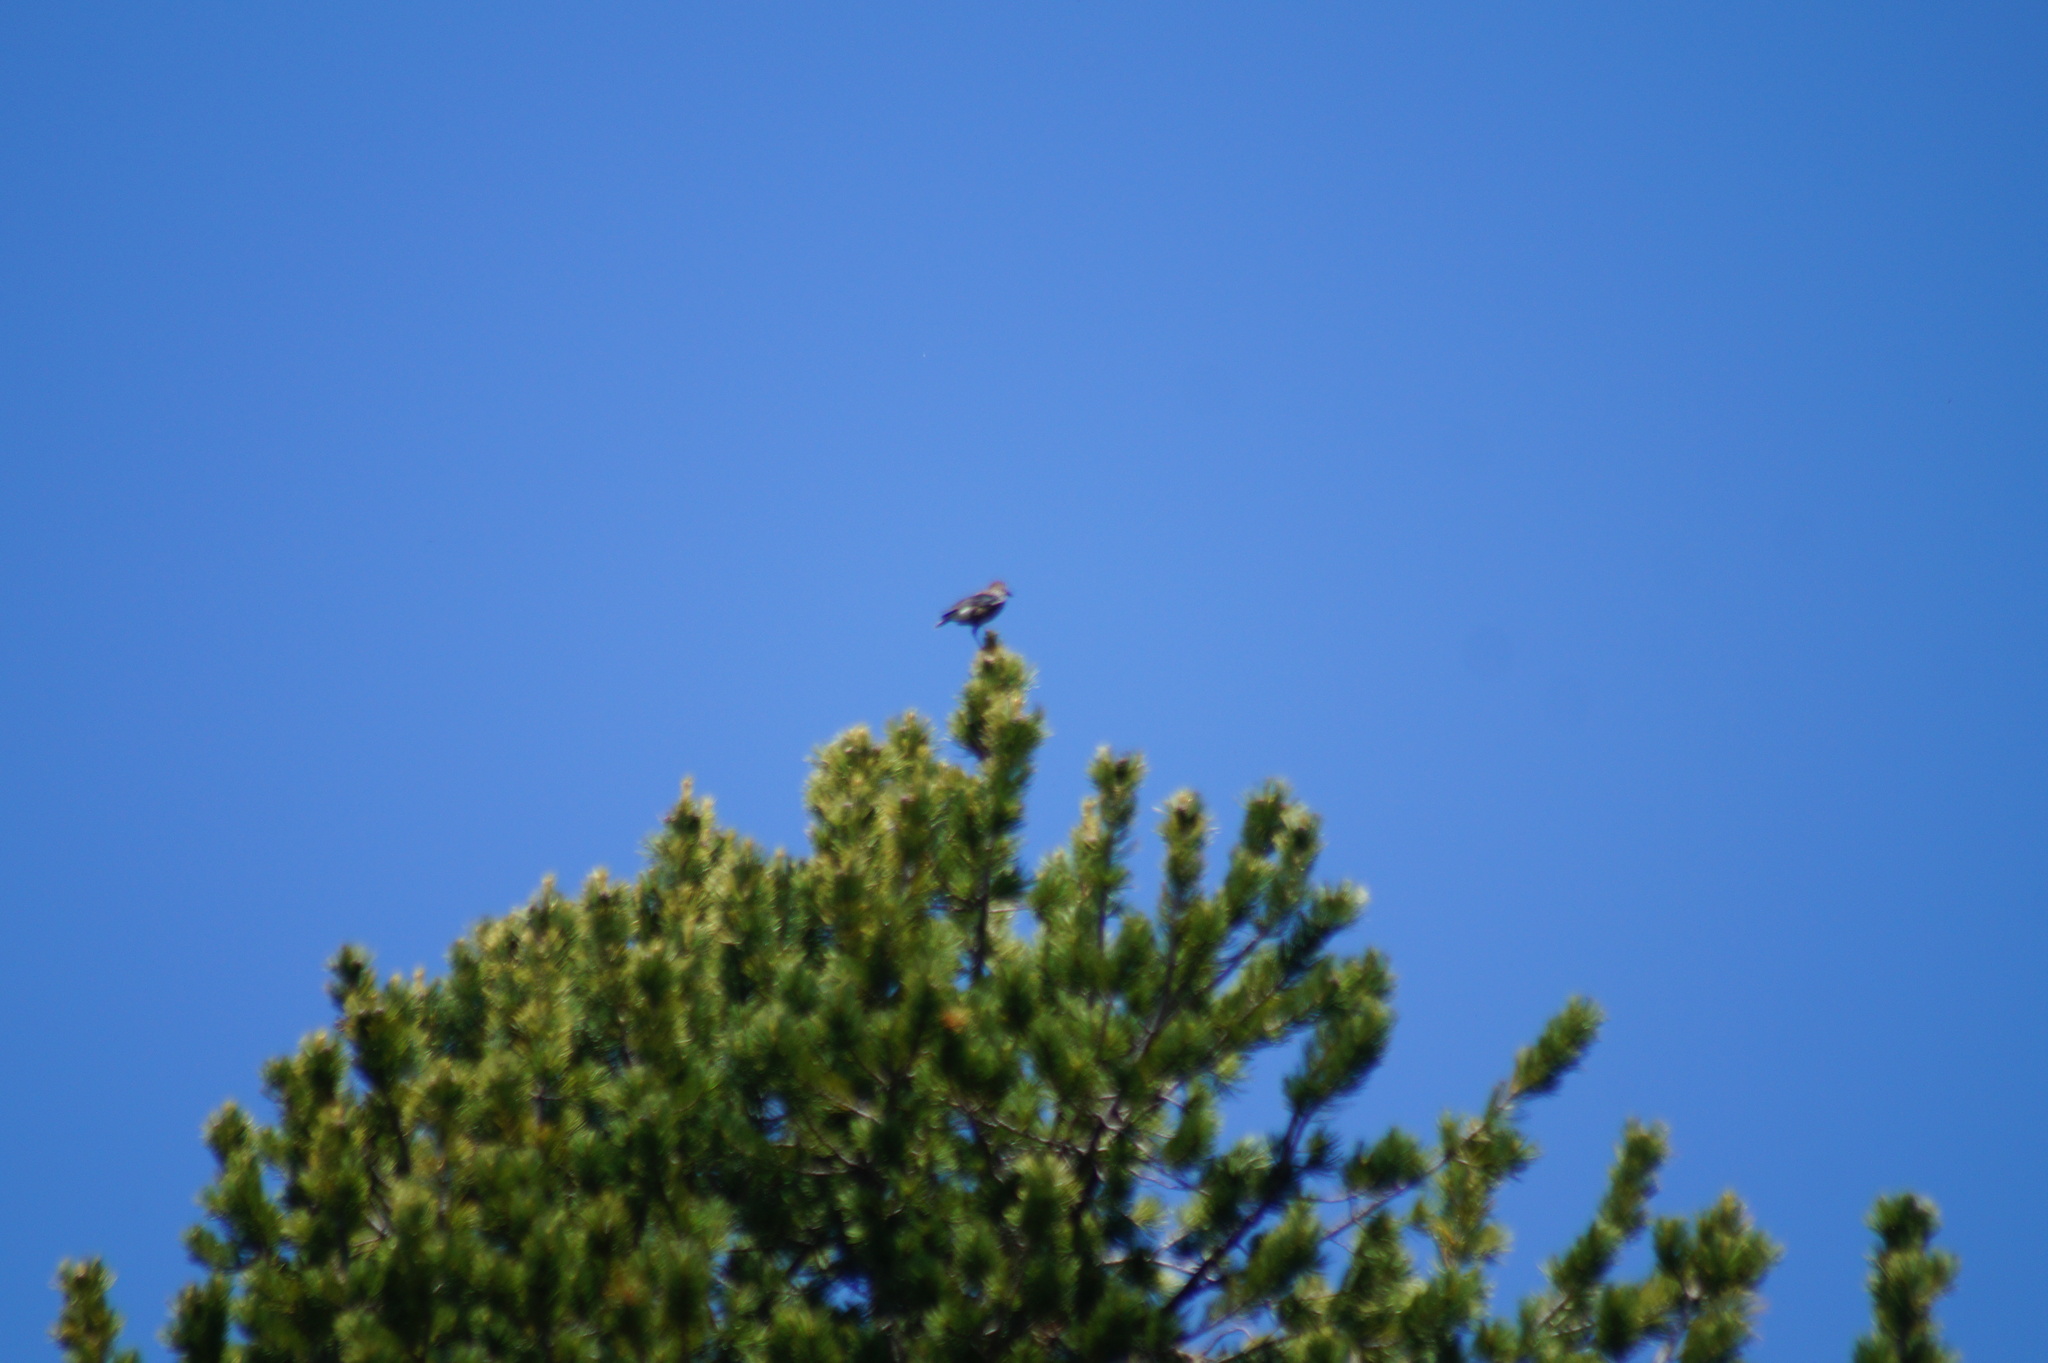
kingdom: Animalia
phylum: Chordata
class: Aves
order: Passeriformes
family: Corvidae
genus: Nucifraga
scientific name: Nucifraga caryocatactes
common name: Spotted nutcracker
